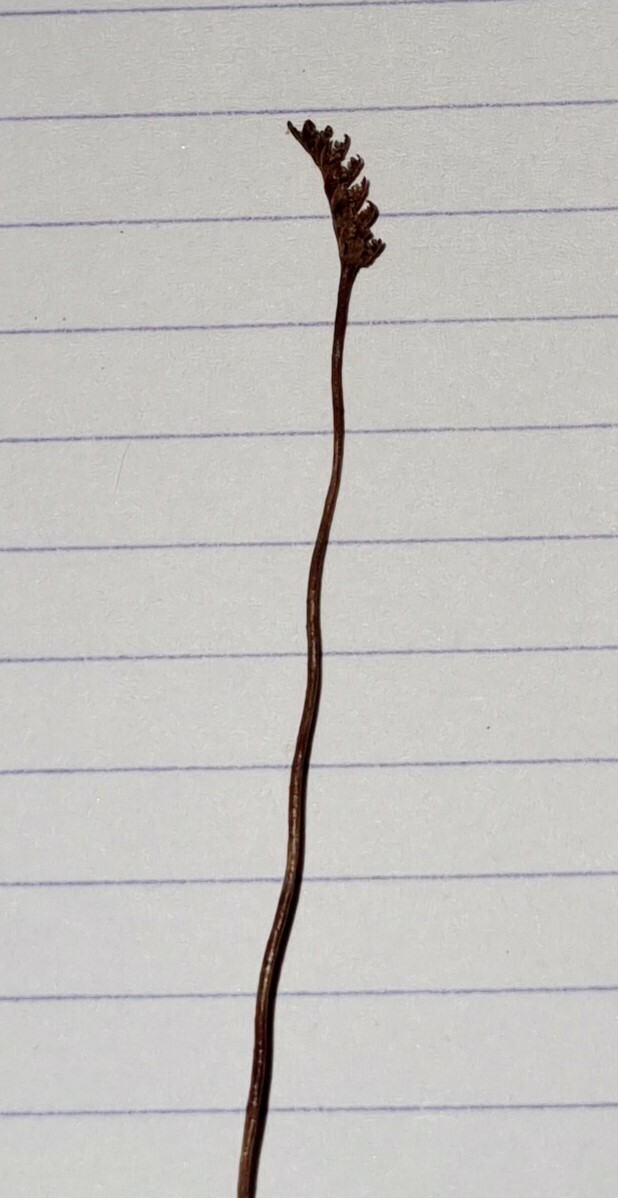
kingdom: Plantae
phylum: Tracheophyta
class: Polypodiopsida
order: Schizaeales
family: Schizaeaceae
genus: Microschizaea
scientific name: Microschizaea australis
